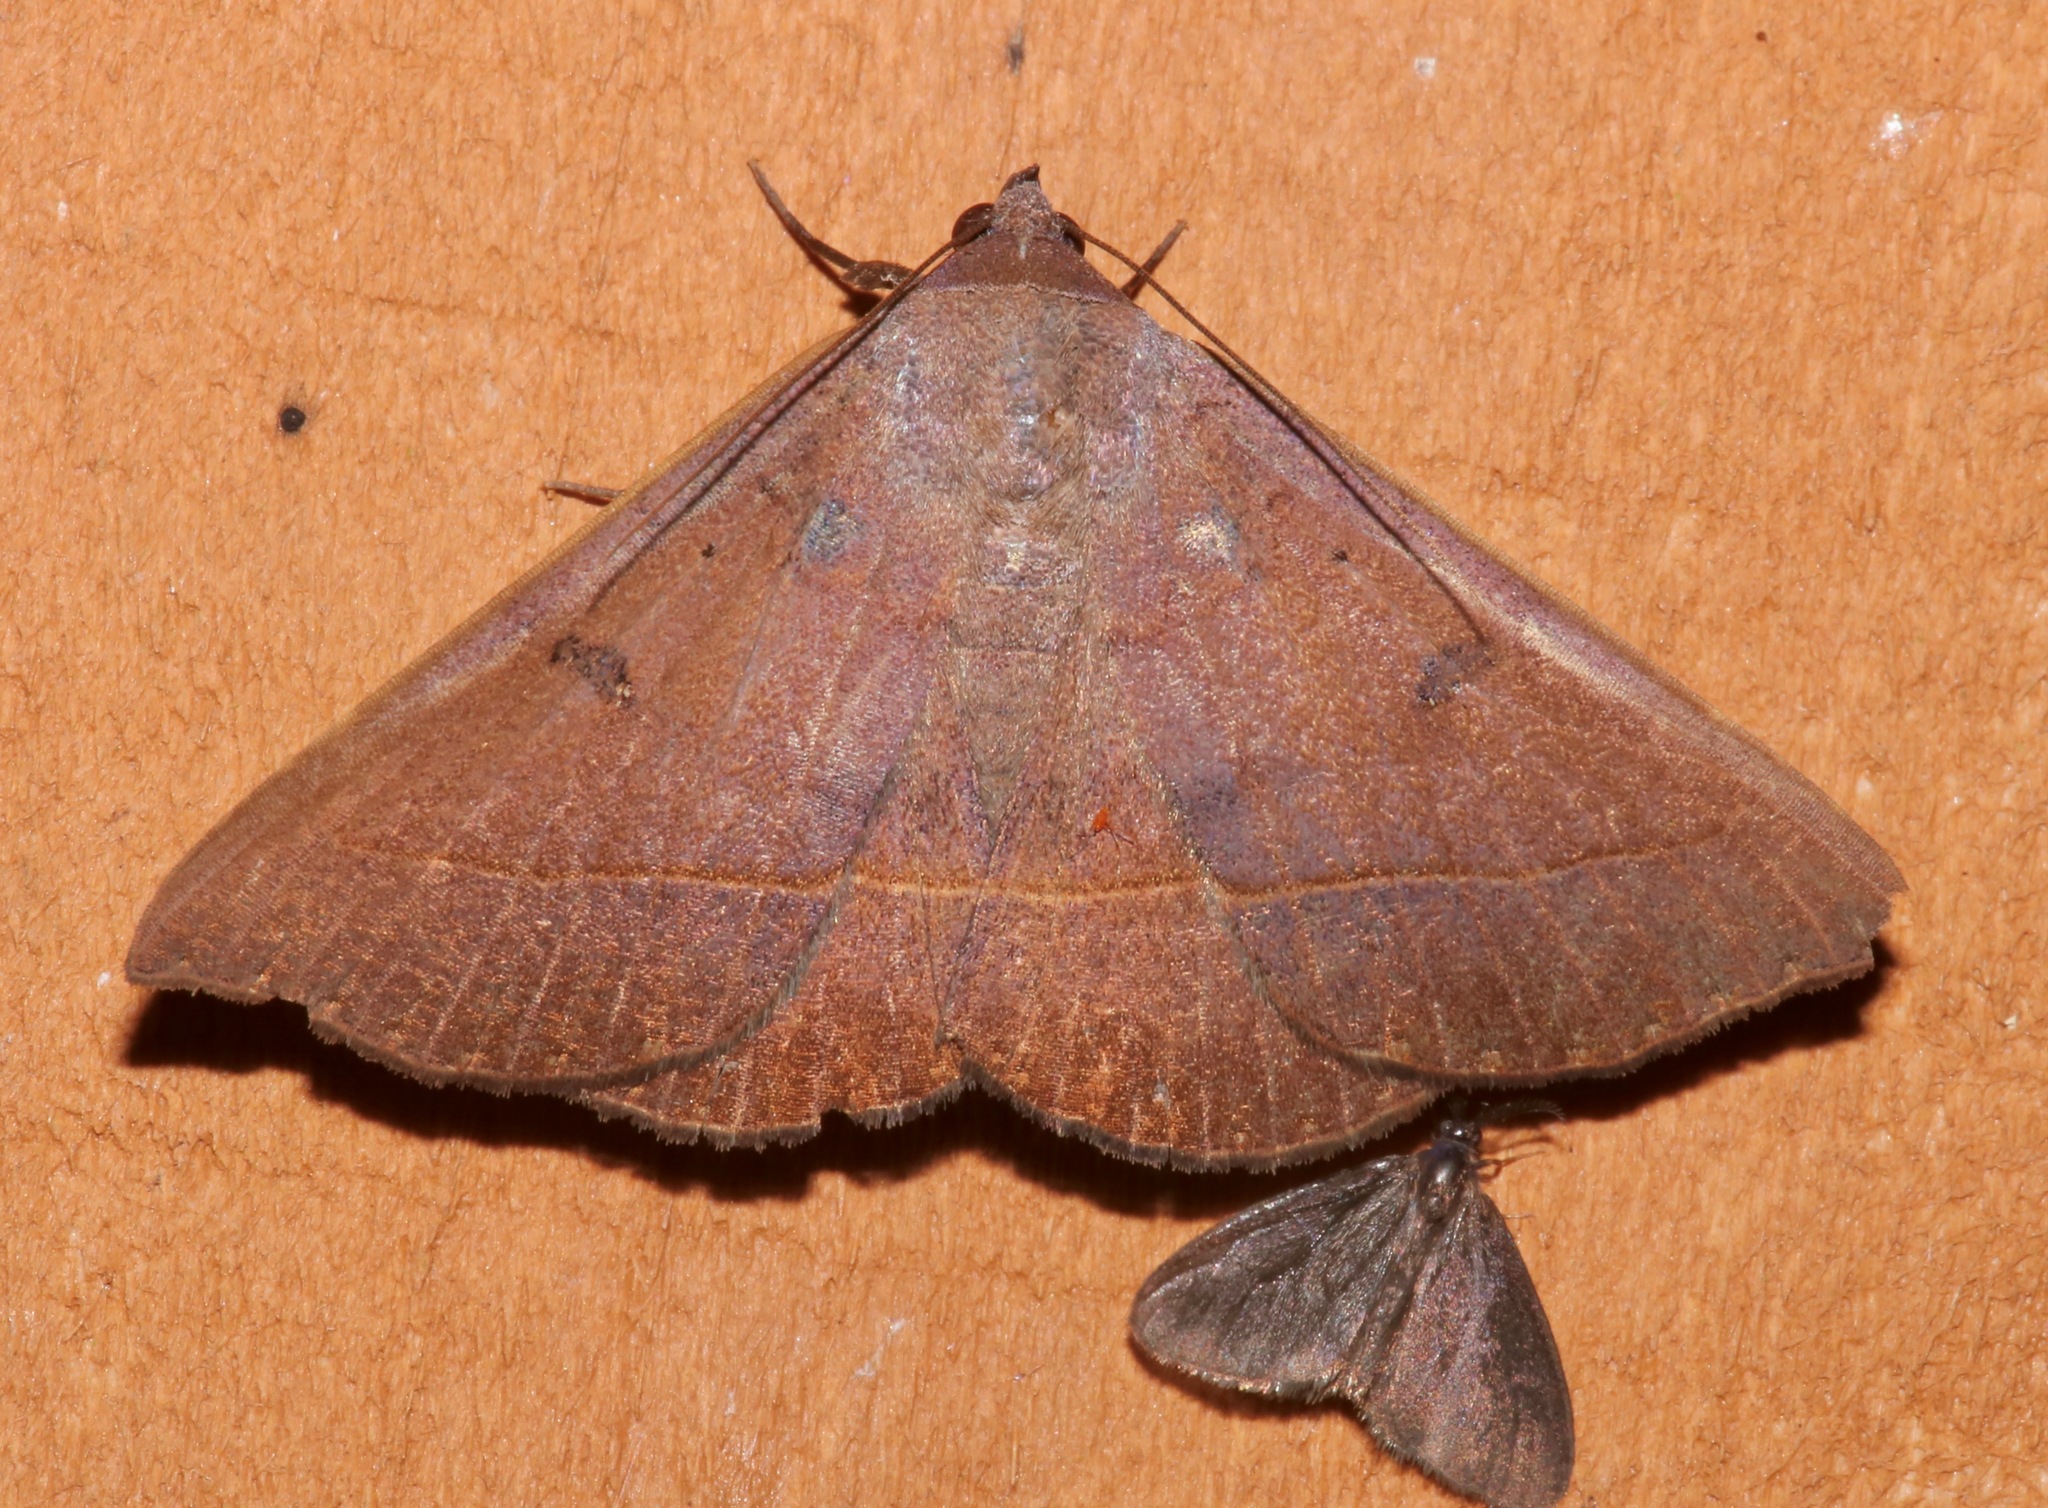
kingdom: Animalia
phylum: Arthropoda
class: Insecta
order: Lepidoptera
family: Erebidae
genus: Panopoda
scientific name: Panopoda carneicosta
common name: Brown panopoda moth
